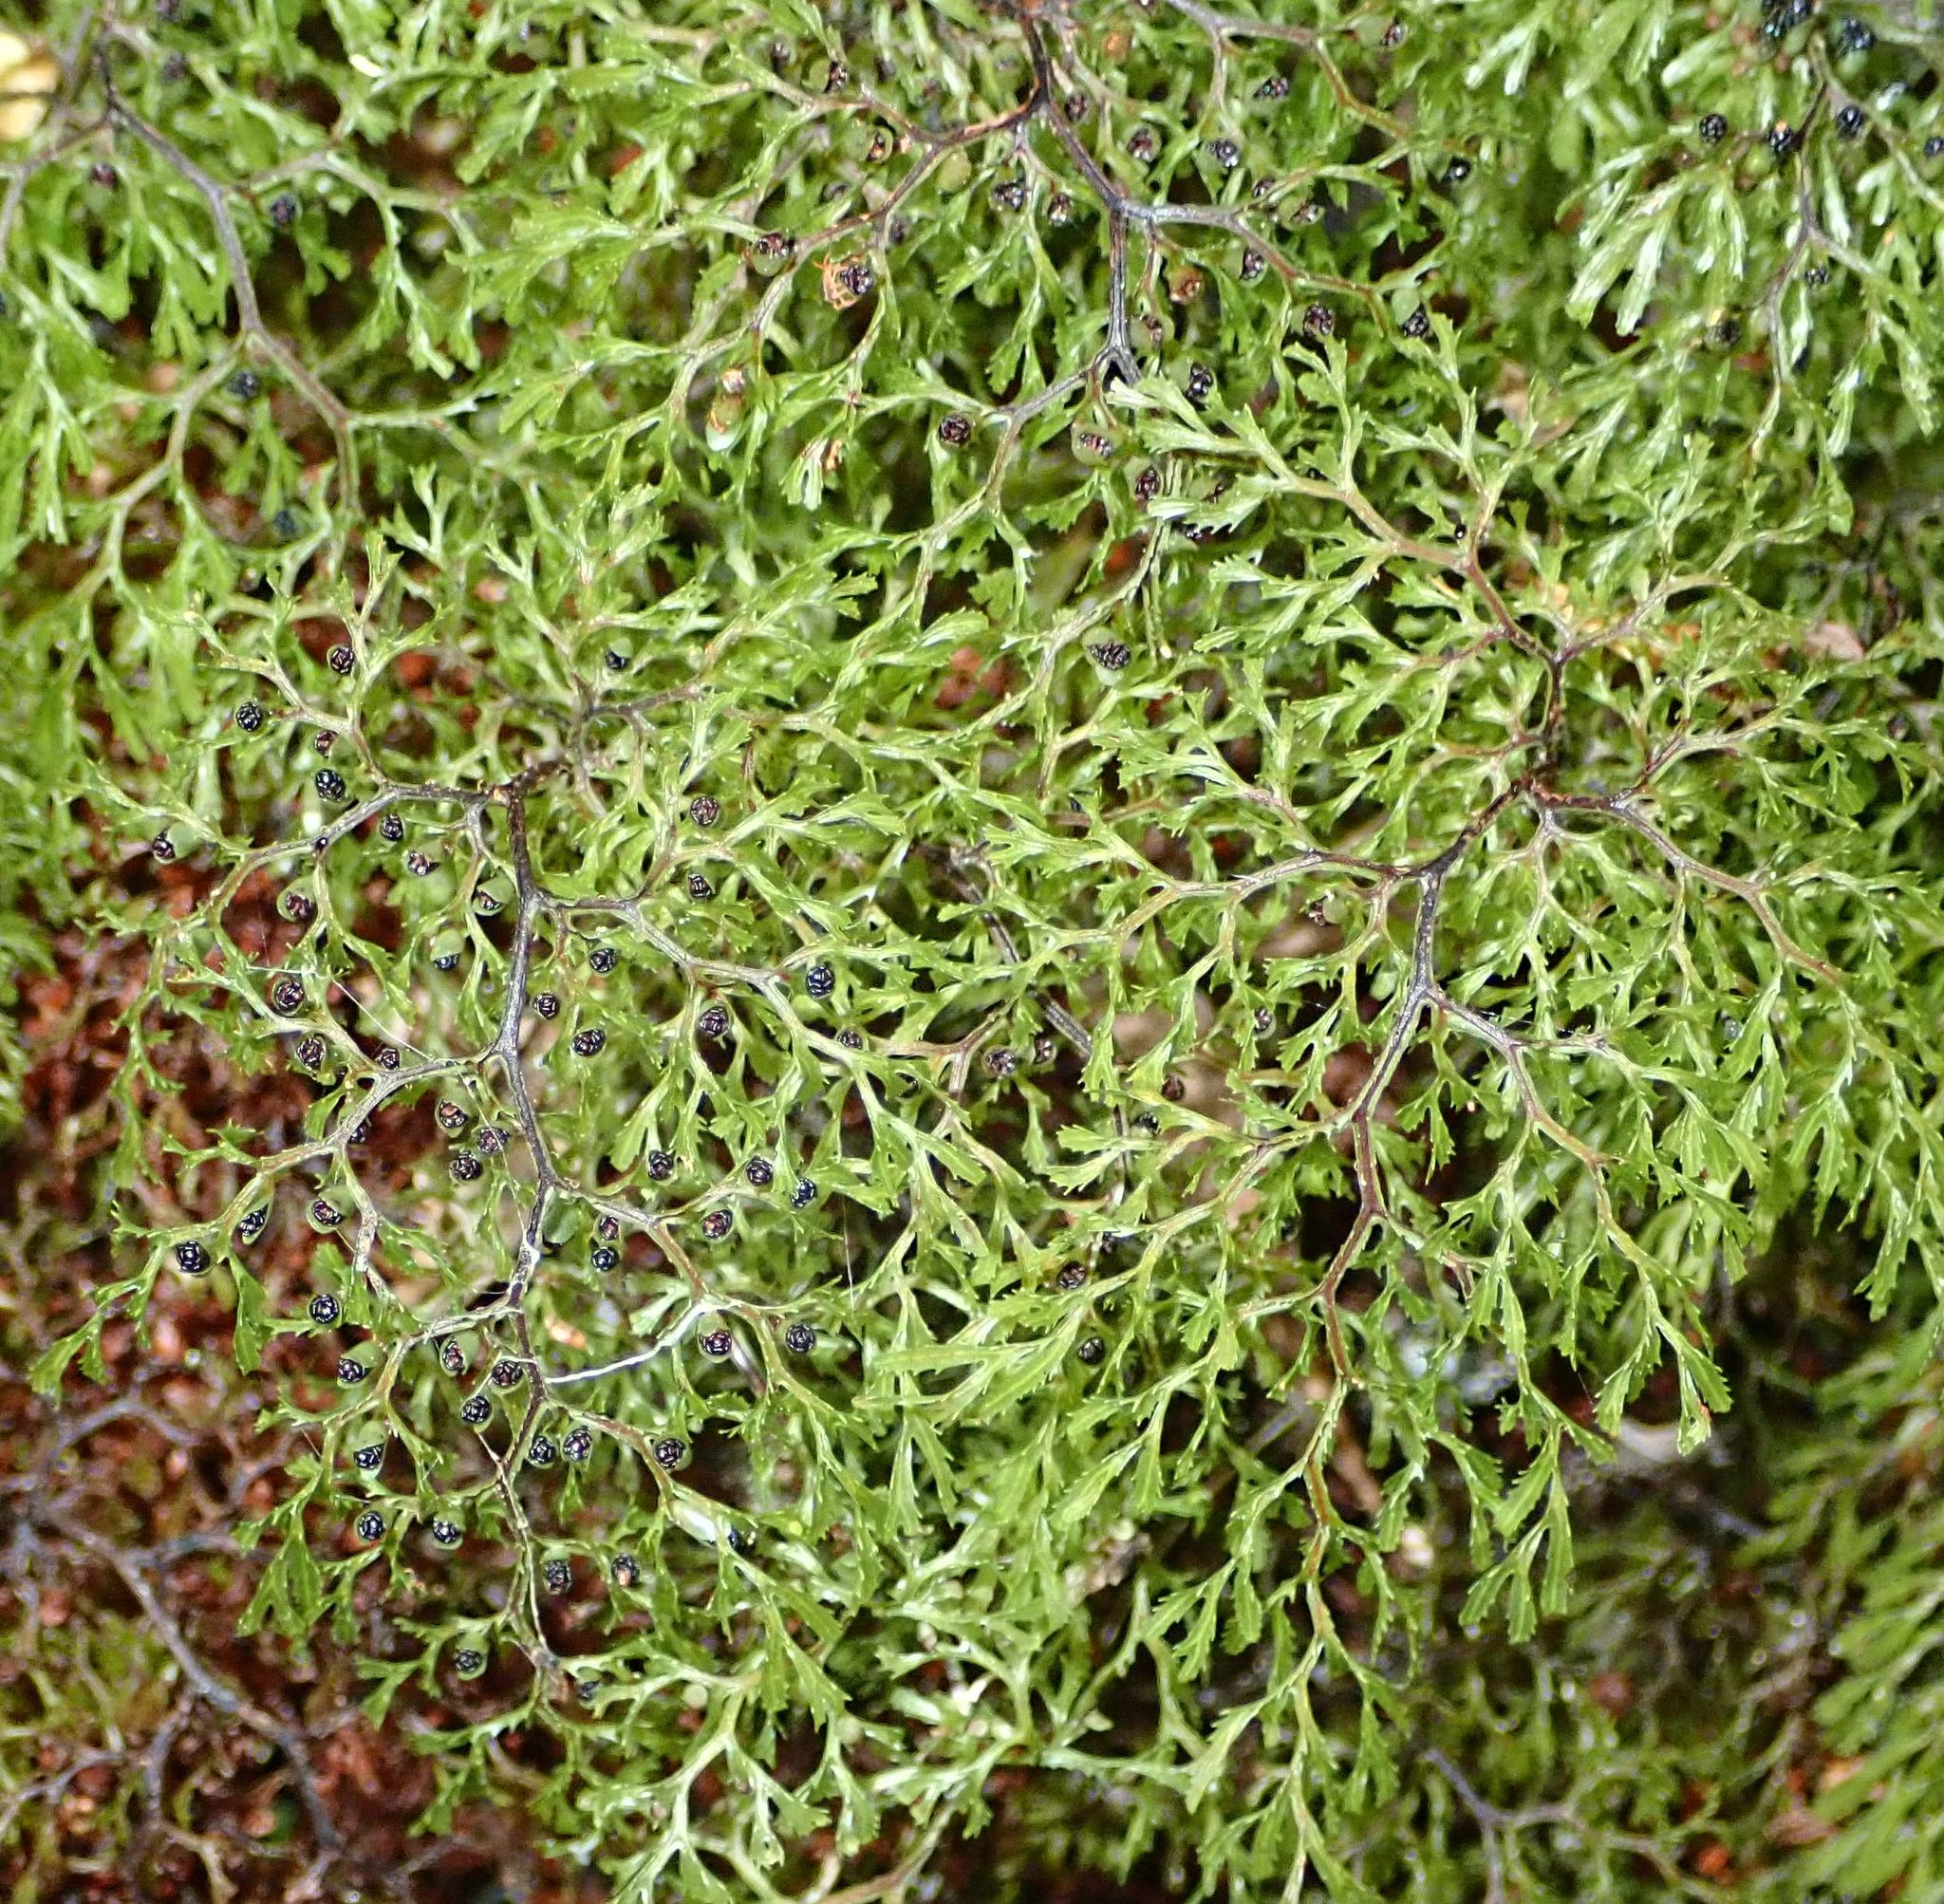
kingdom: Plantae
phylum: Tracheophyta
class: Polypodiopsida
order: Hymenophyllales
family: Hymenophyllaceae
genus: Hymenophyllum
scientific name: Hymenophyllum multifidum
